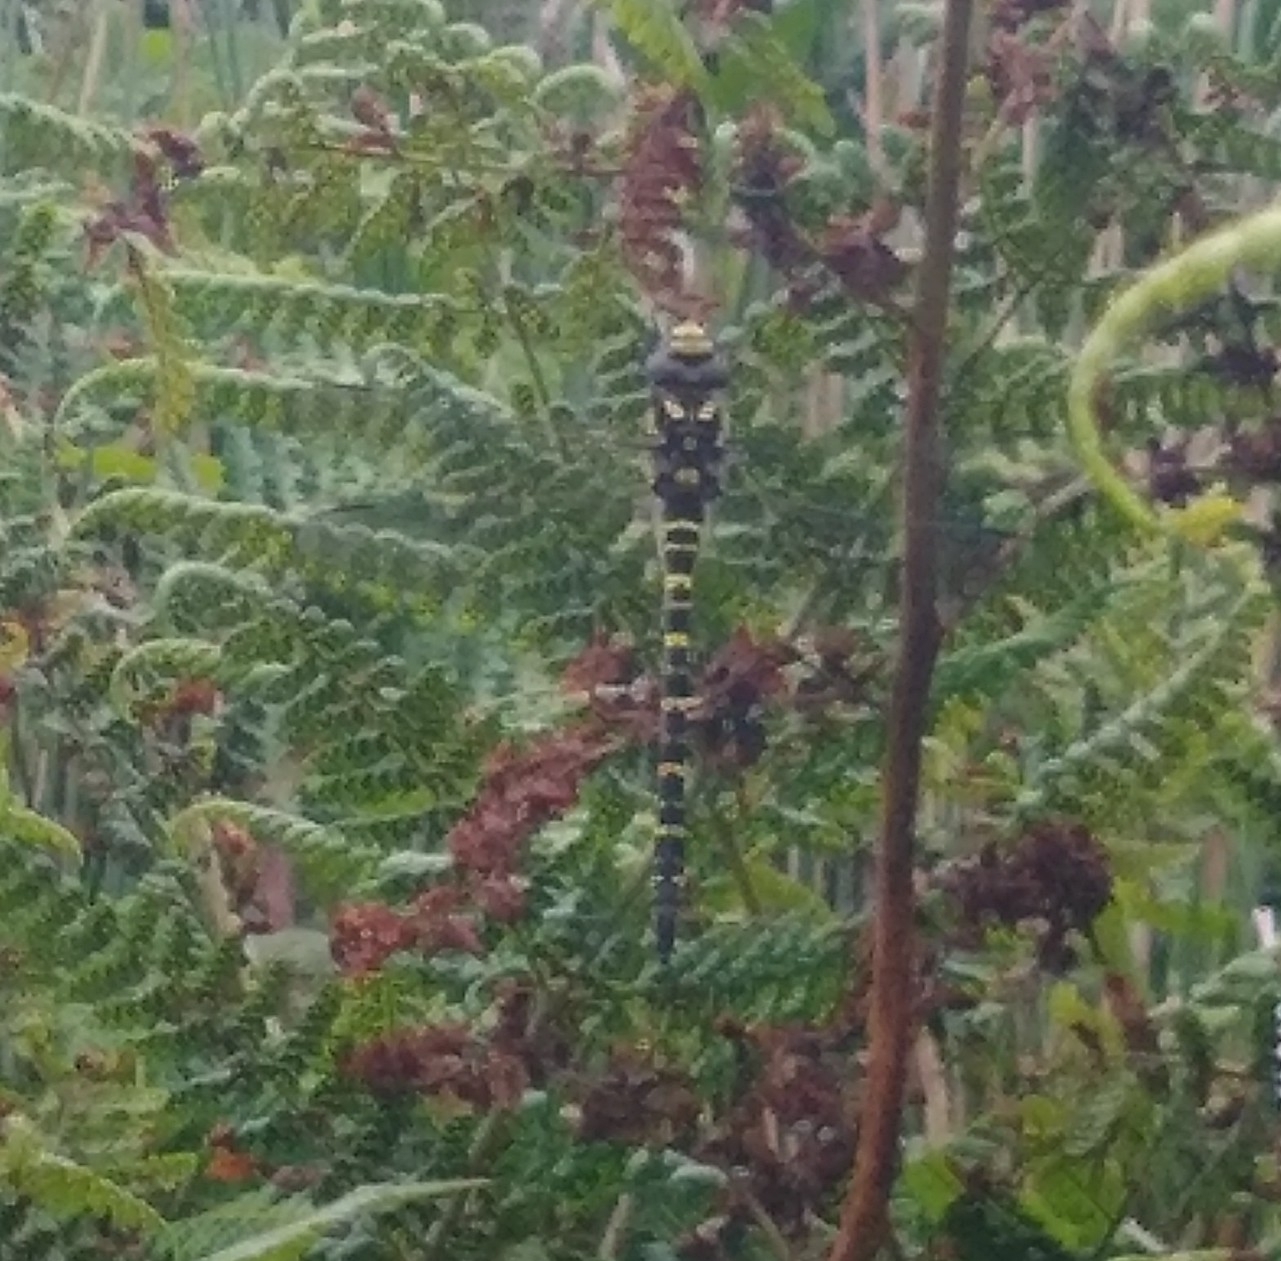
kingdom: Animalia
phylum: Arthropoda
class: Insecta
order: Odonata
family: Cordulegastridae
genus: Cordulegaster
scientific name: Cordulegaster boltonii
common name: Golden-ringed dragonfly
